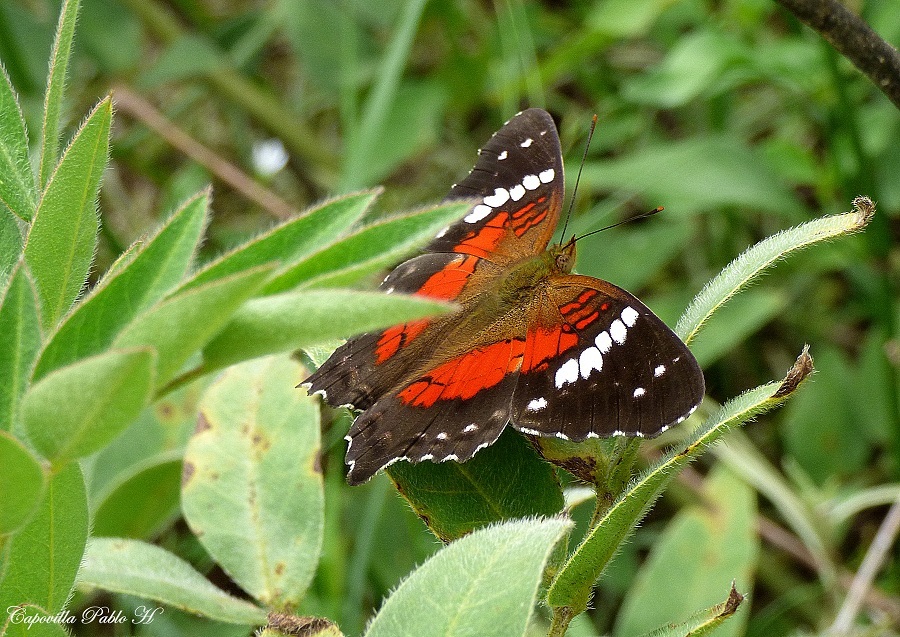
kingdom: Animalia
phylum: Arthropoda
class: Insecta
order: Lepidoptera
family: Nymphalidae
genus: Anartia
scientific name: Anartia amathea
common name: Red peacock
